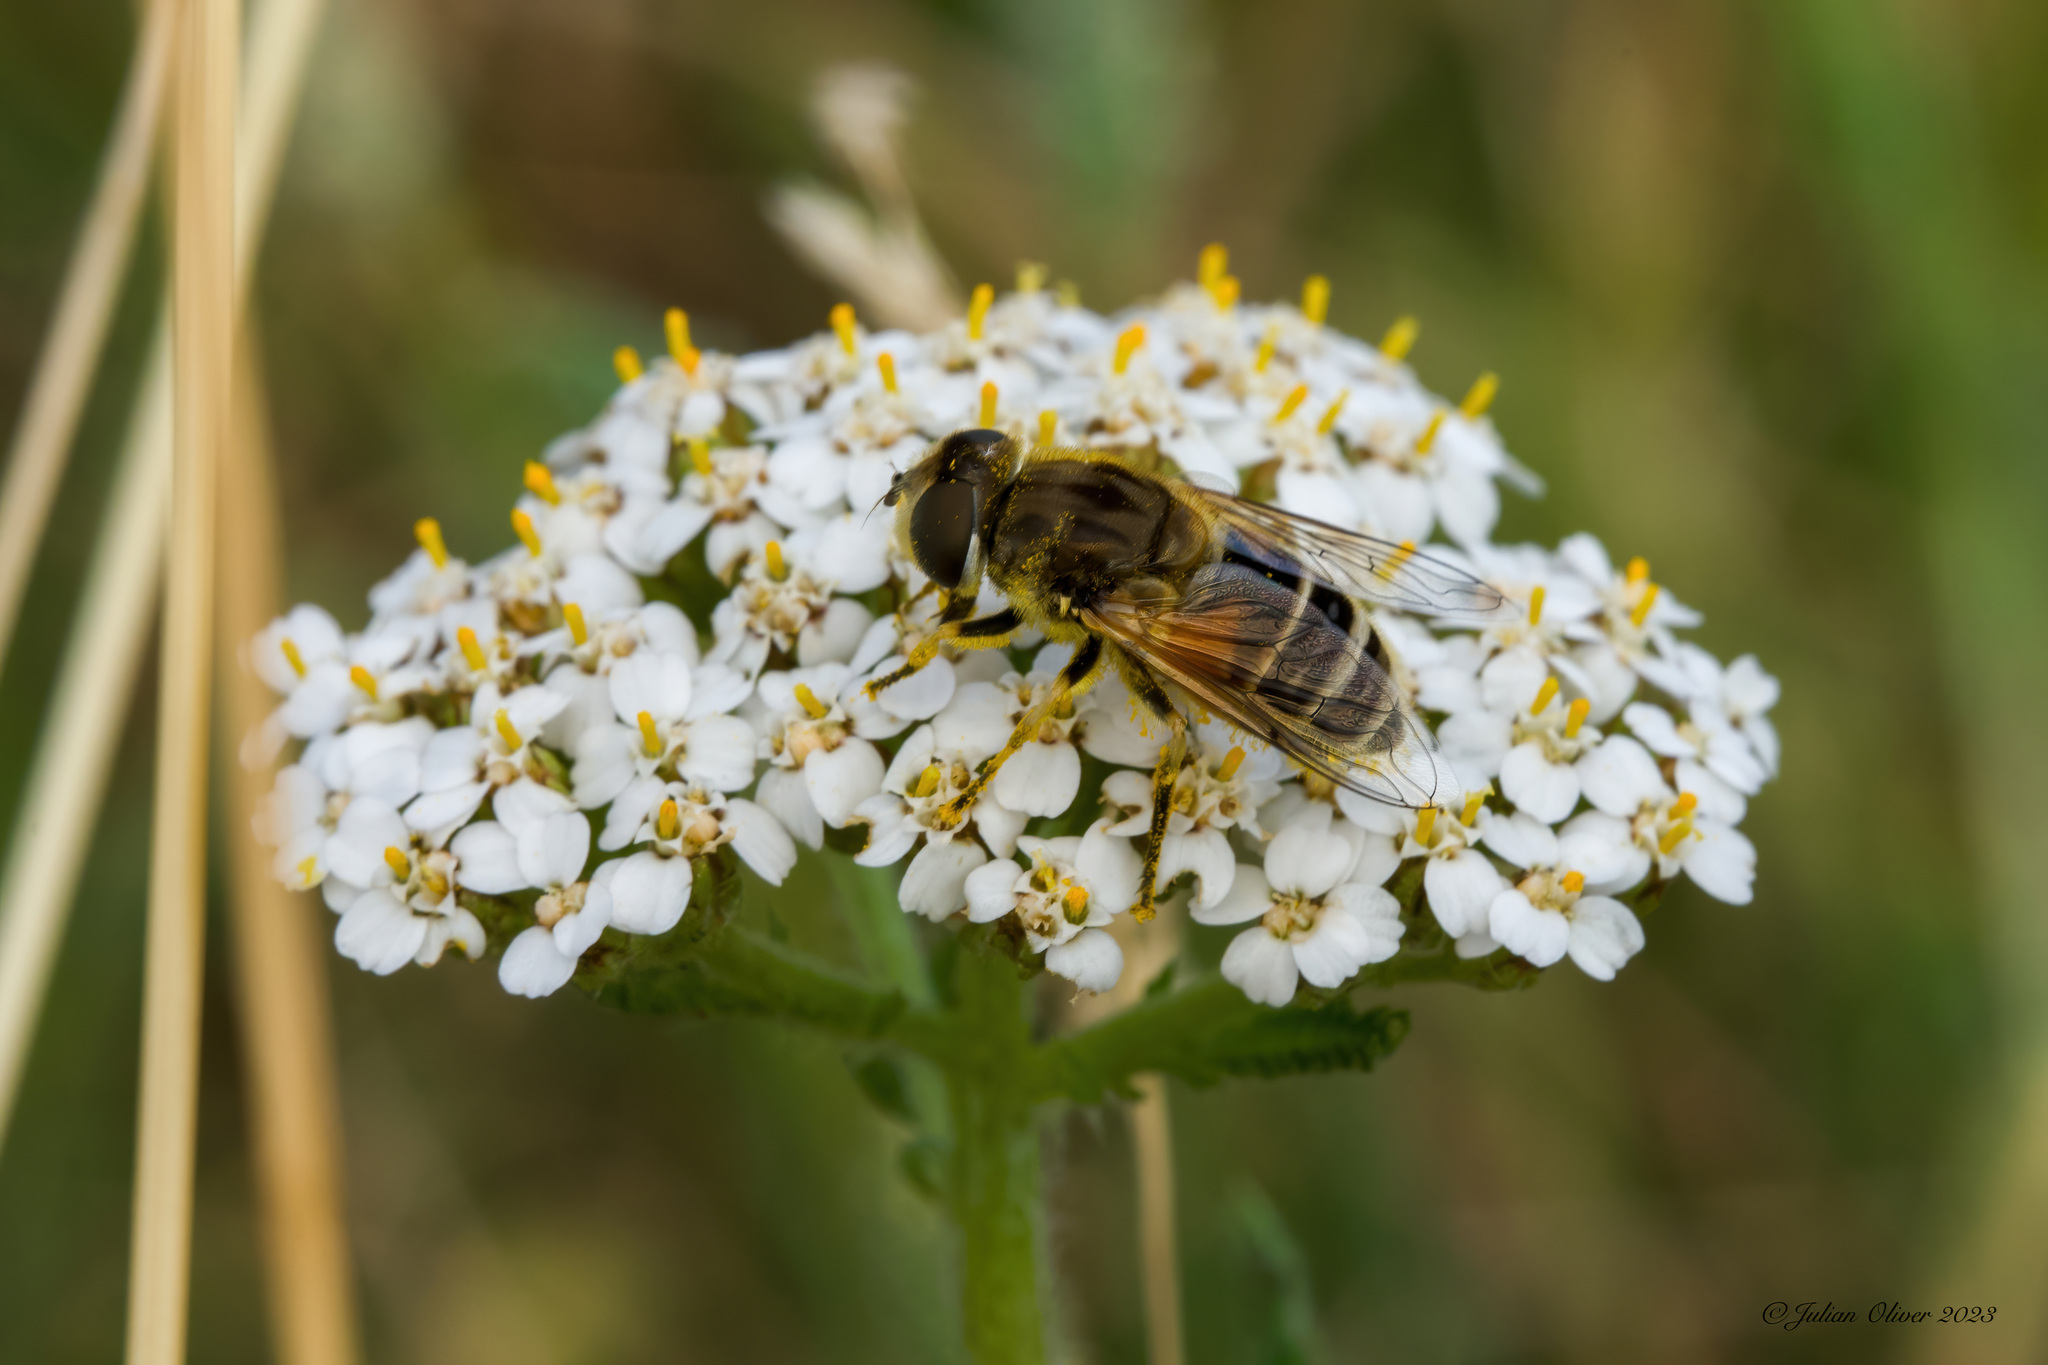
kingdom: Animalia
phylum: Arthropoda
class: Insecta
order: Diptera
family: Syrphidae
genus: Eristalis
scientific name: Eristalis arbustorum
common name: Hover fly
